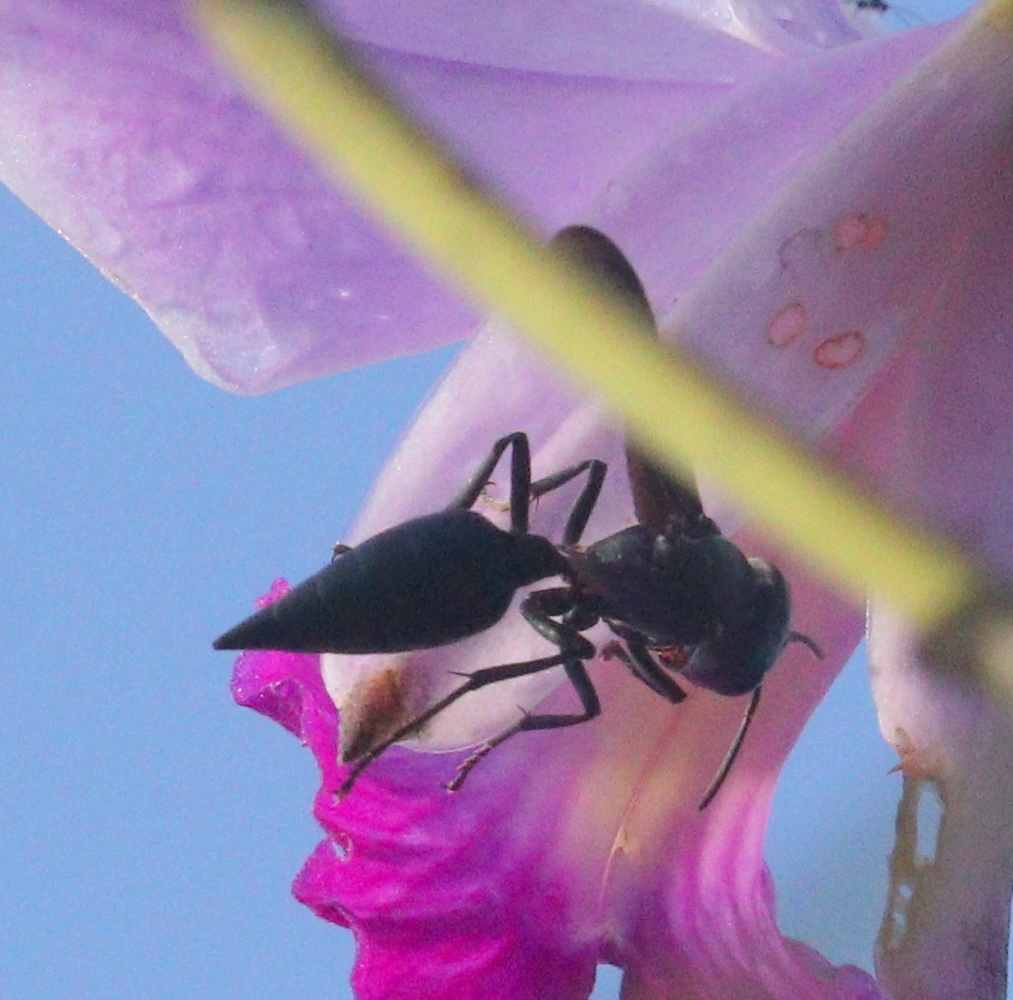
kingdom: Animalia
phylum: Arthropoda
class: Insecta
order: Hymenoptera
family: Vespidae
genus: Synoeca
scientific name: Synoeca septentrionalis
